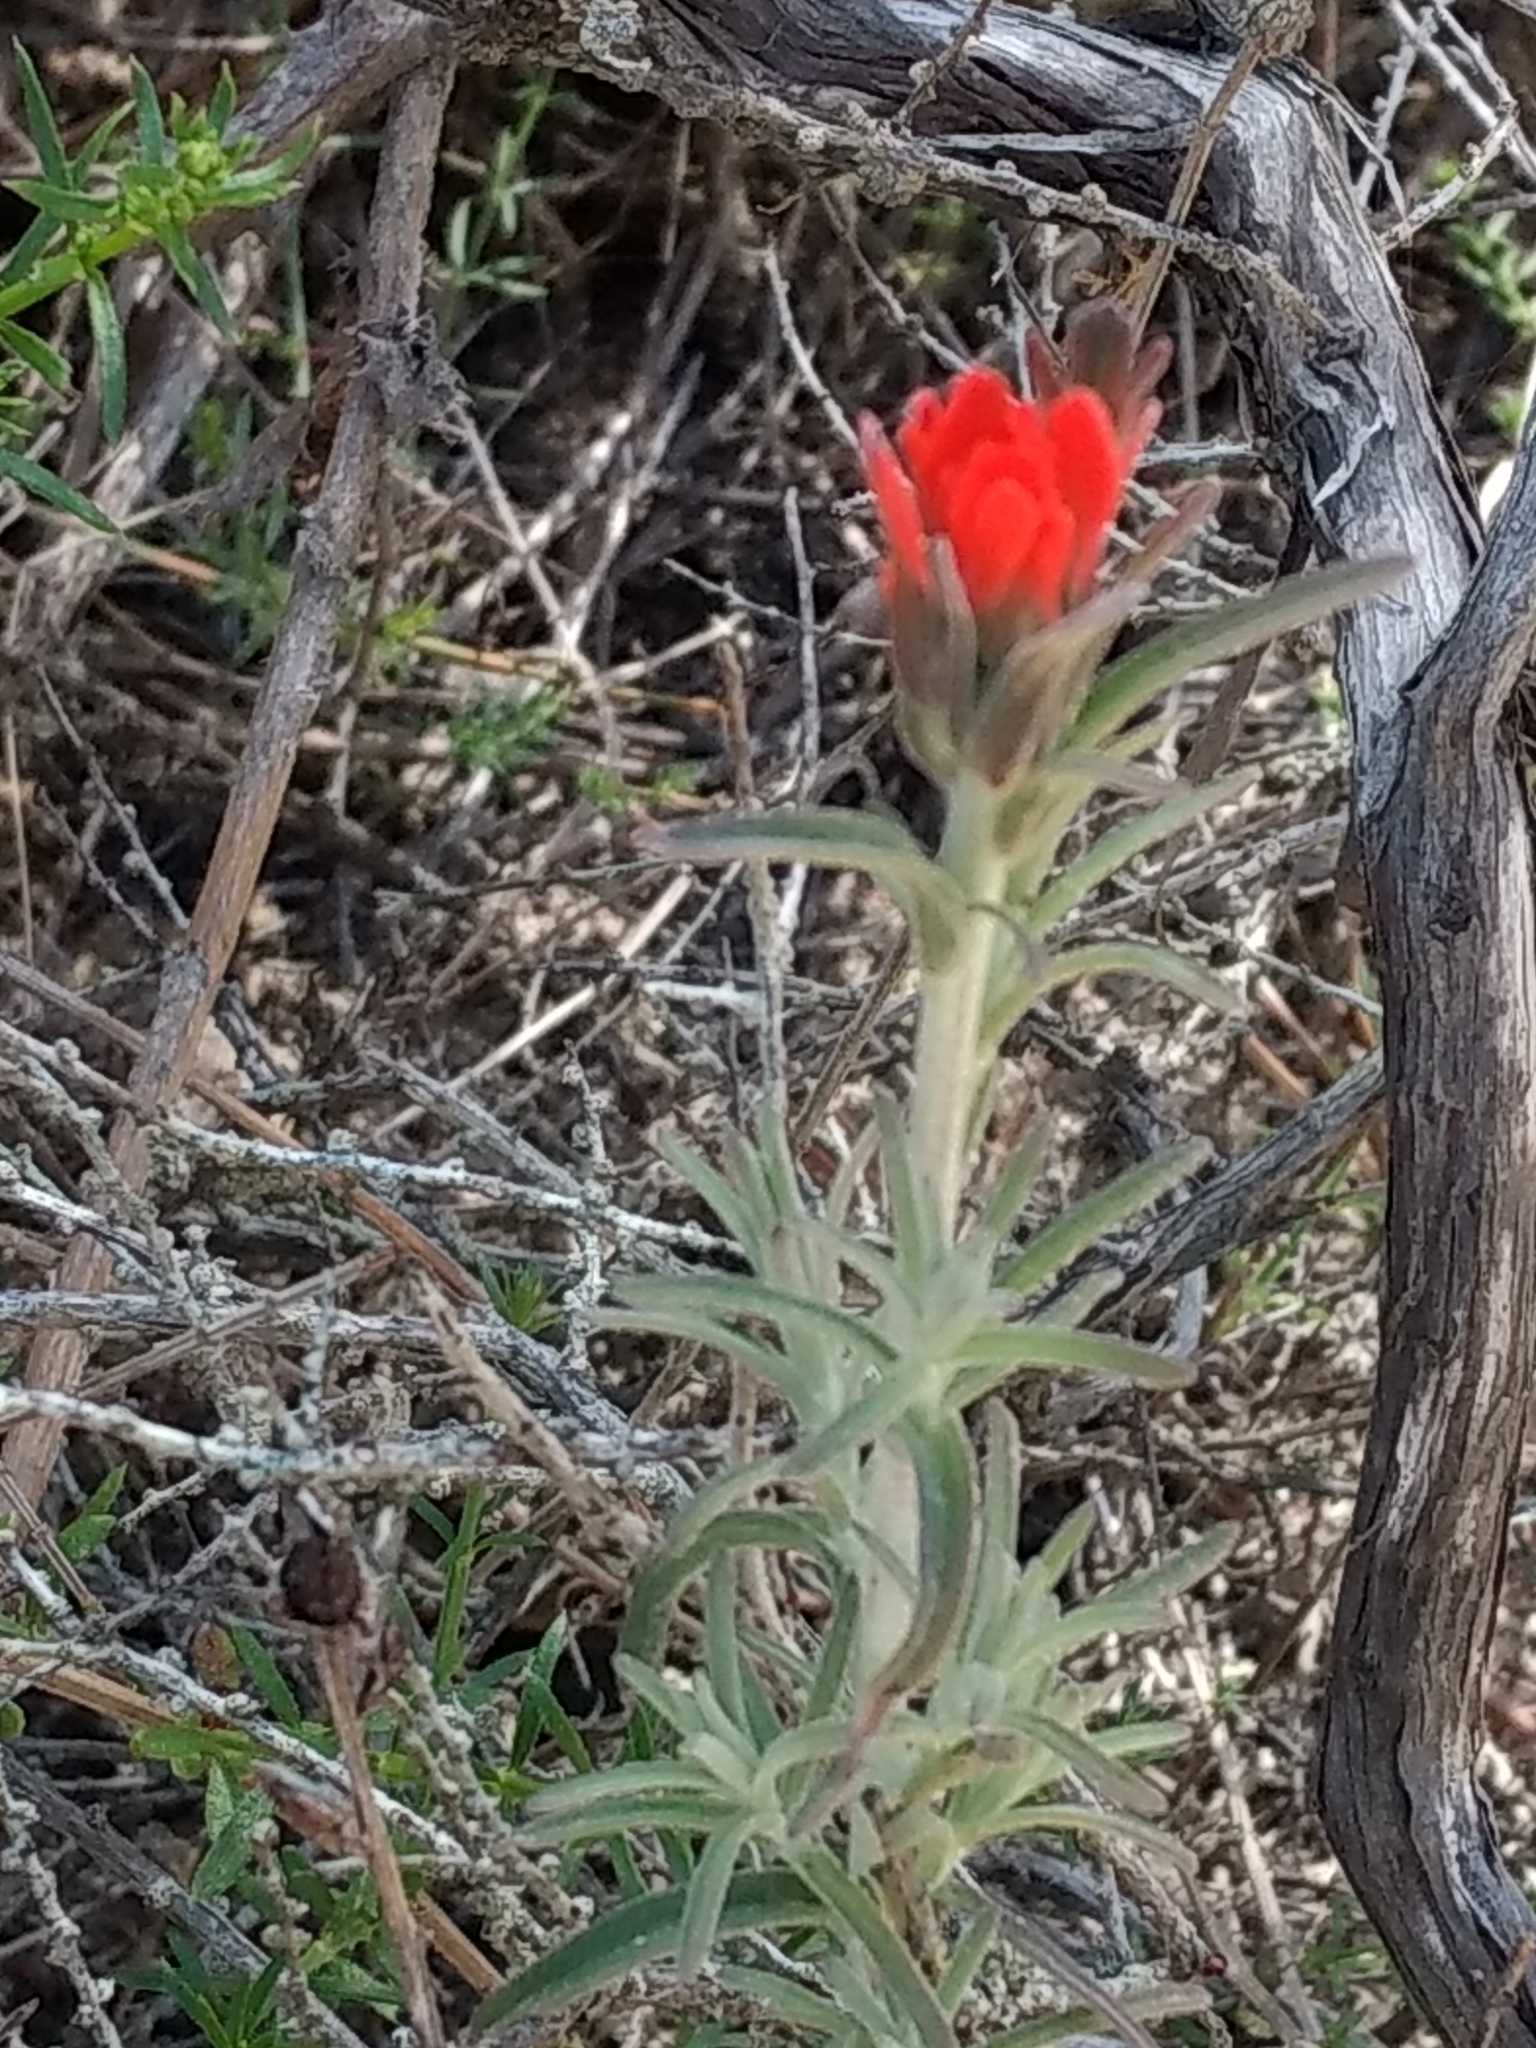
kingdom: Plantae
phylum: Tracheophyta
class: Magnoliopsida
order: Lamiales
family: Orobanchaceae
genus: Castilleja
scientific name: Castilleja foliolosa
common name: Woolly indian paintbrush
